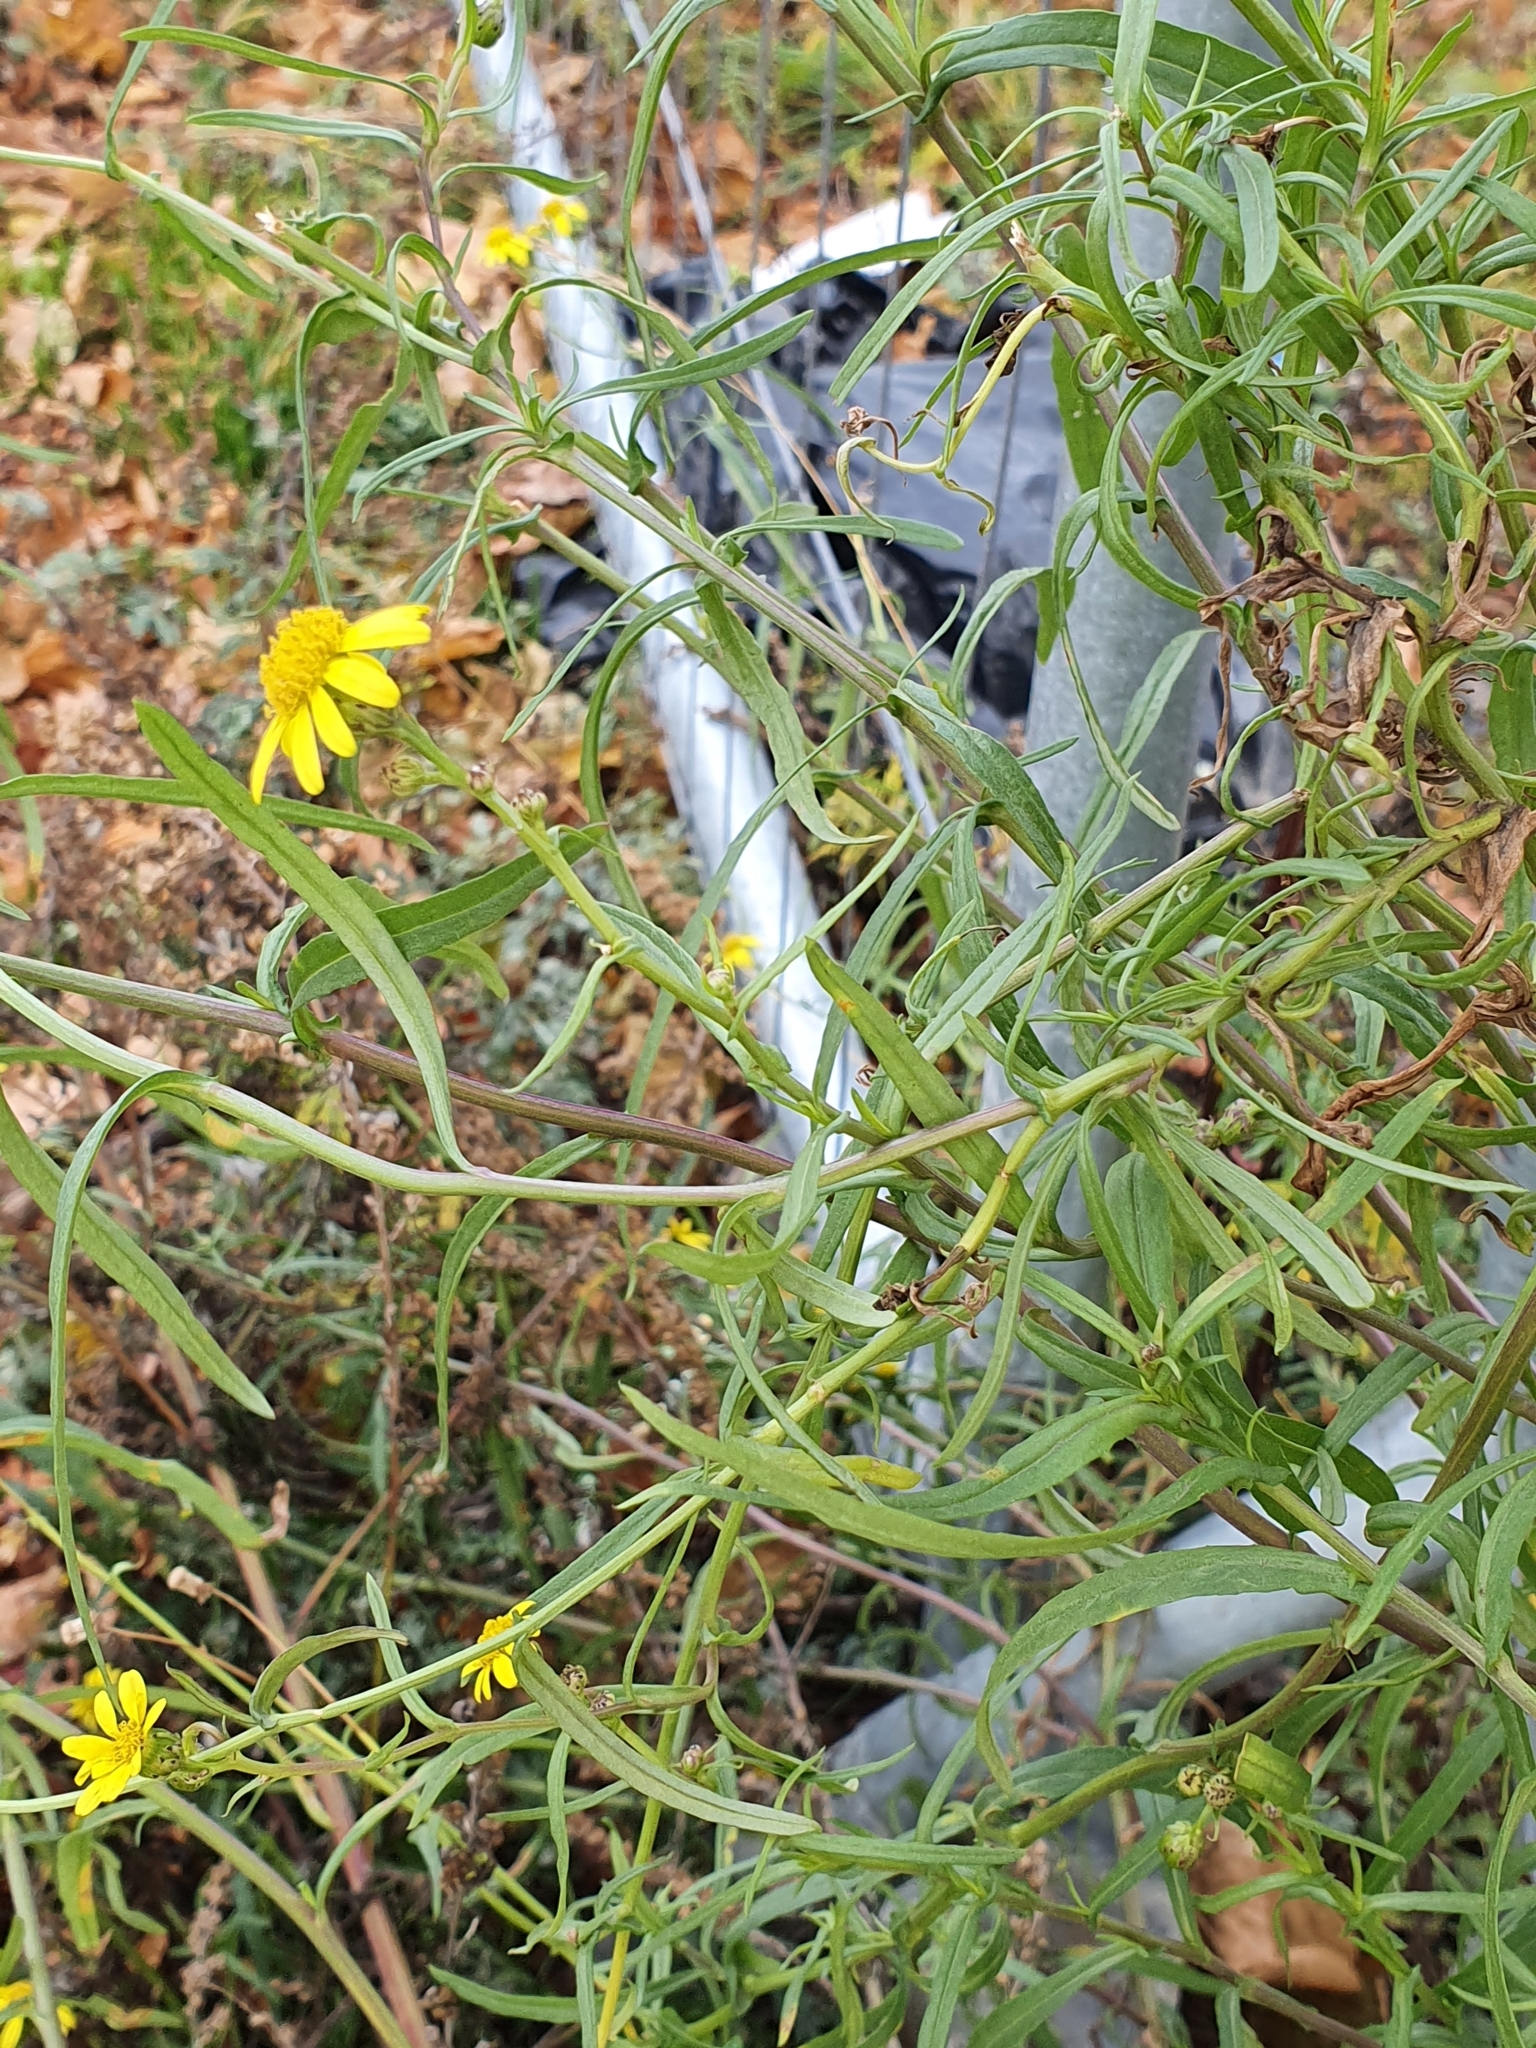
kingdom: Plantae
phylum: Tracheophyta
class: Magnoliopsida
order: Asterales
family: Asteraceae
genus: Senecio
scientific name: Senecio inaequidens
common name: Narrow-leaved ragwort
